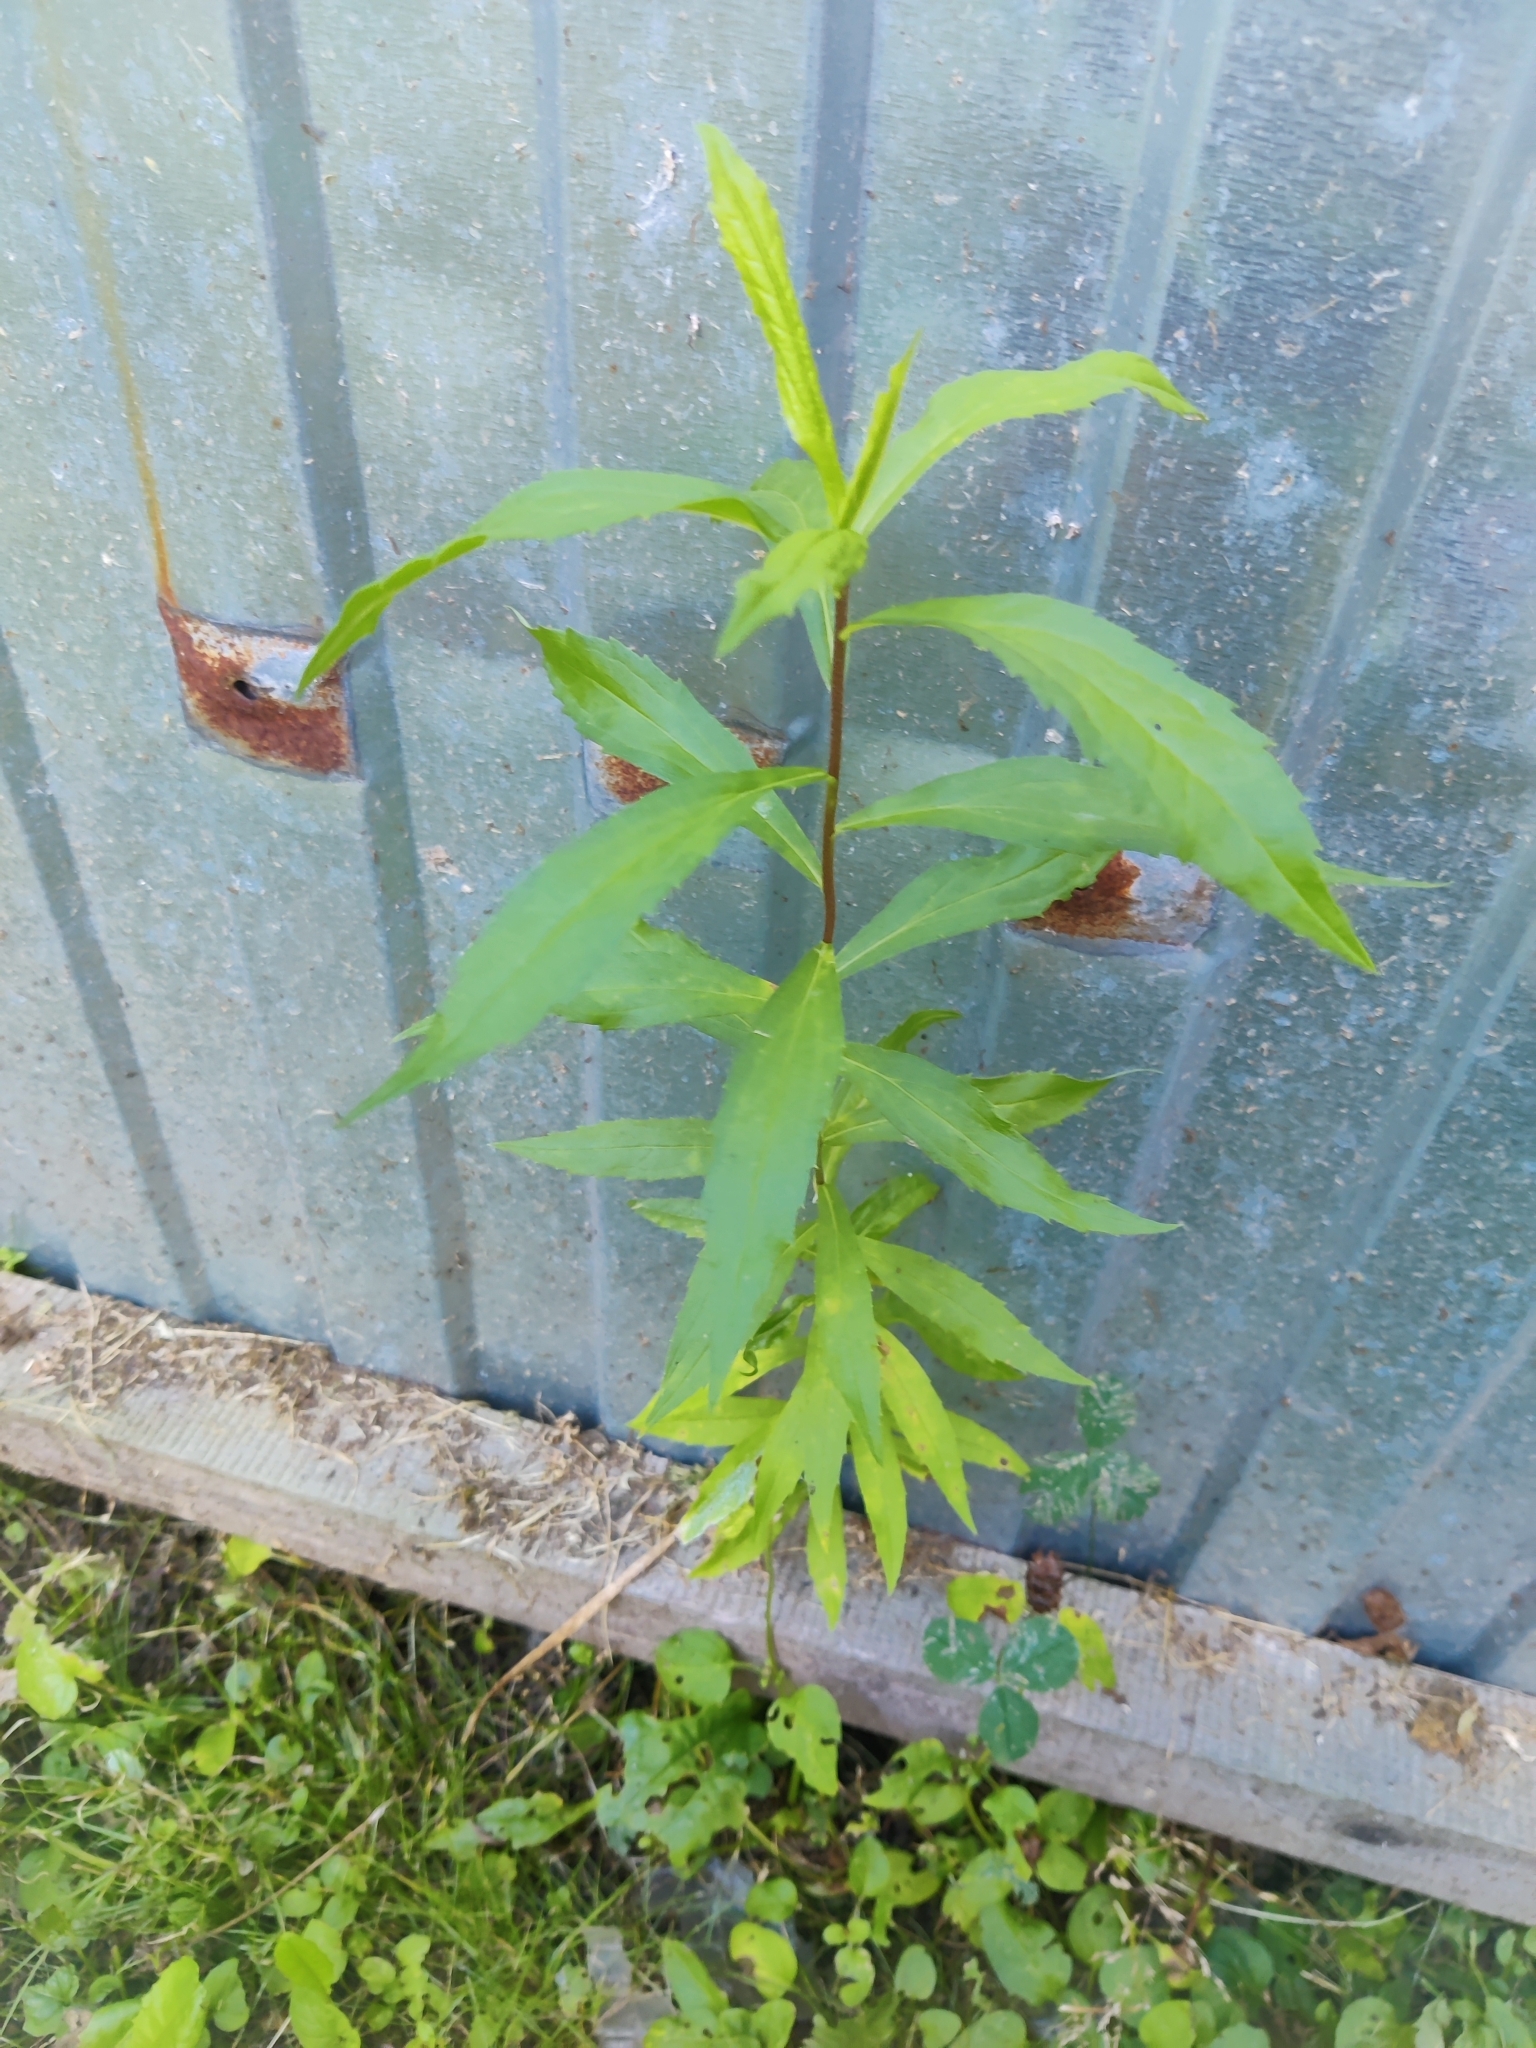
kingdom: Plantae
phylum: Tracheophyta
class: Magnoliopsida
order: Asterales
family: Asteraceae
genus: Solidago
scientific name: Solidago canadensis
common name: Canada goldenrod
